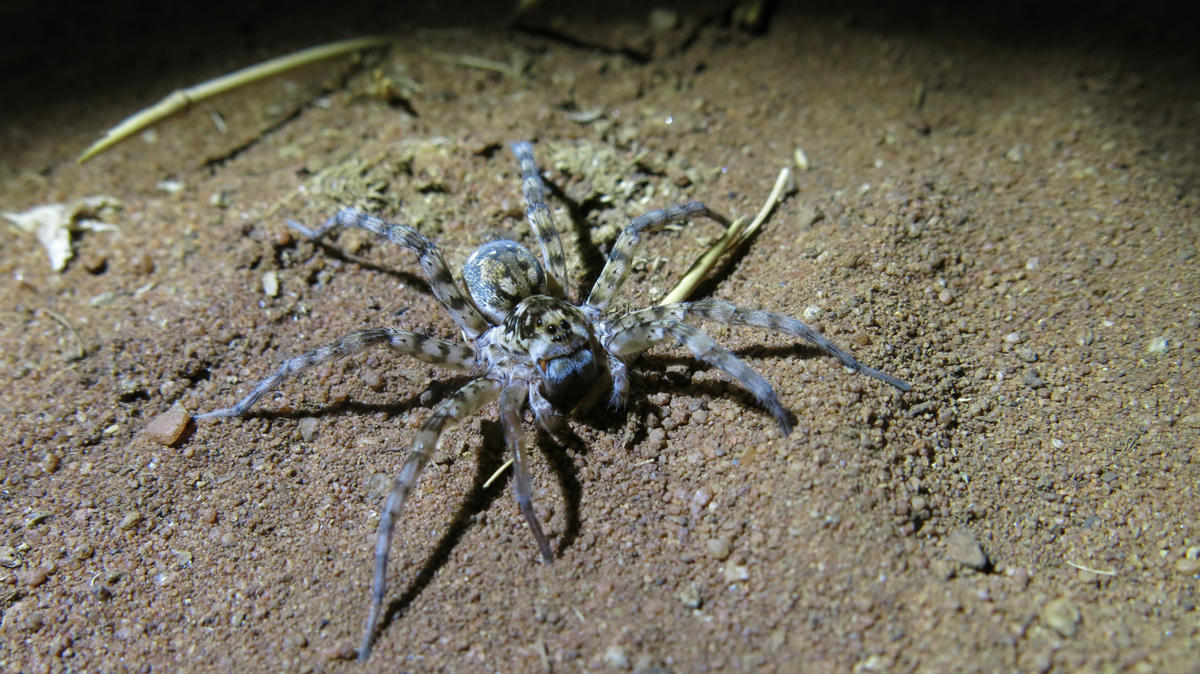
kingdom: Animalia
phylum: Arthropoda
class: Arachnida
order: Araneae
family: Lycosidae
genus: Ocyale
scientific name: Ocyale guttata
